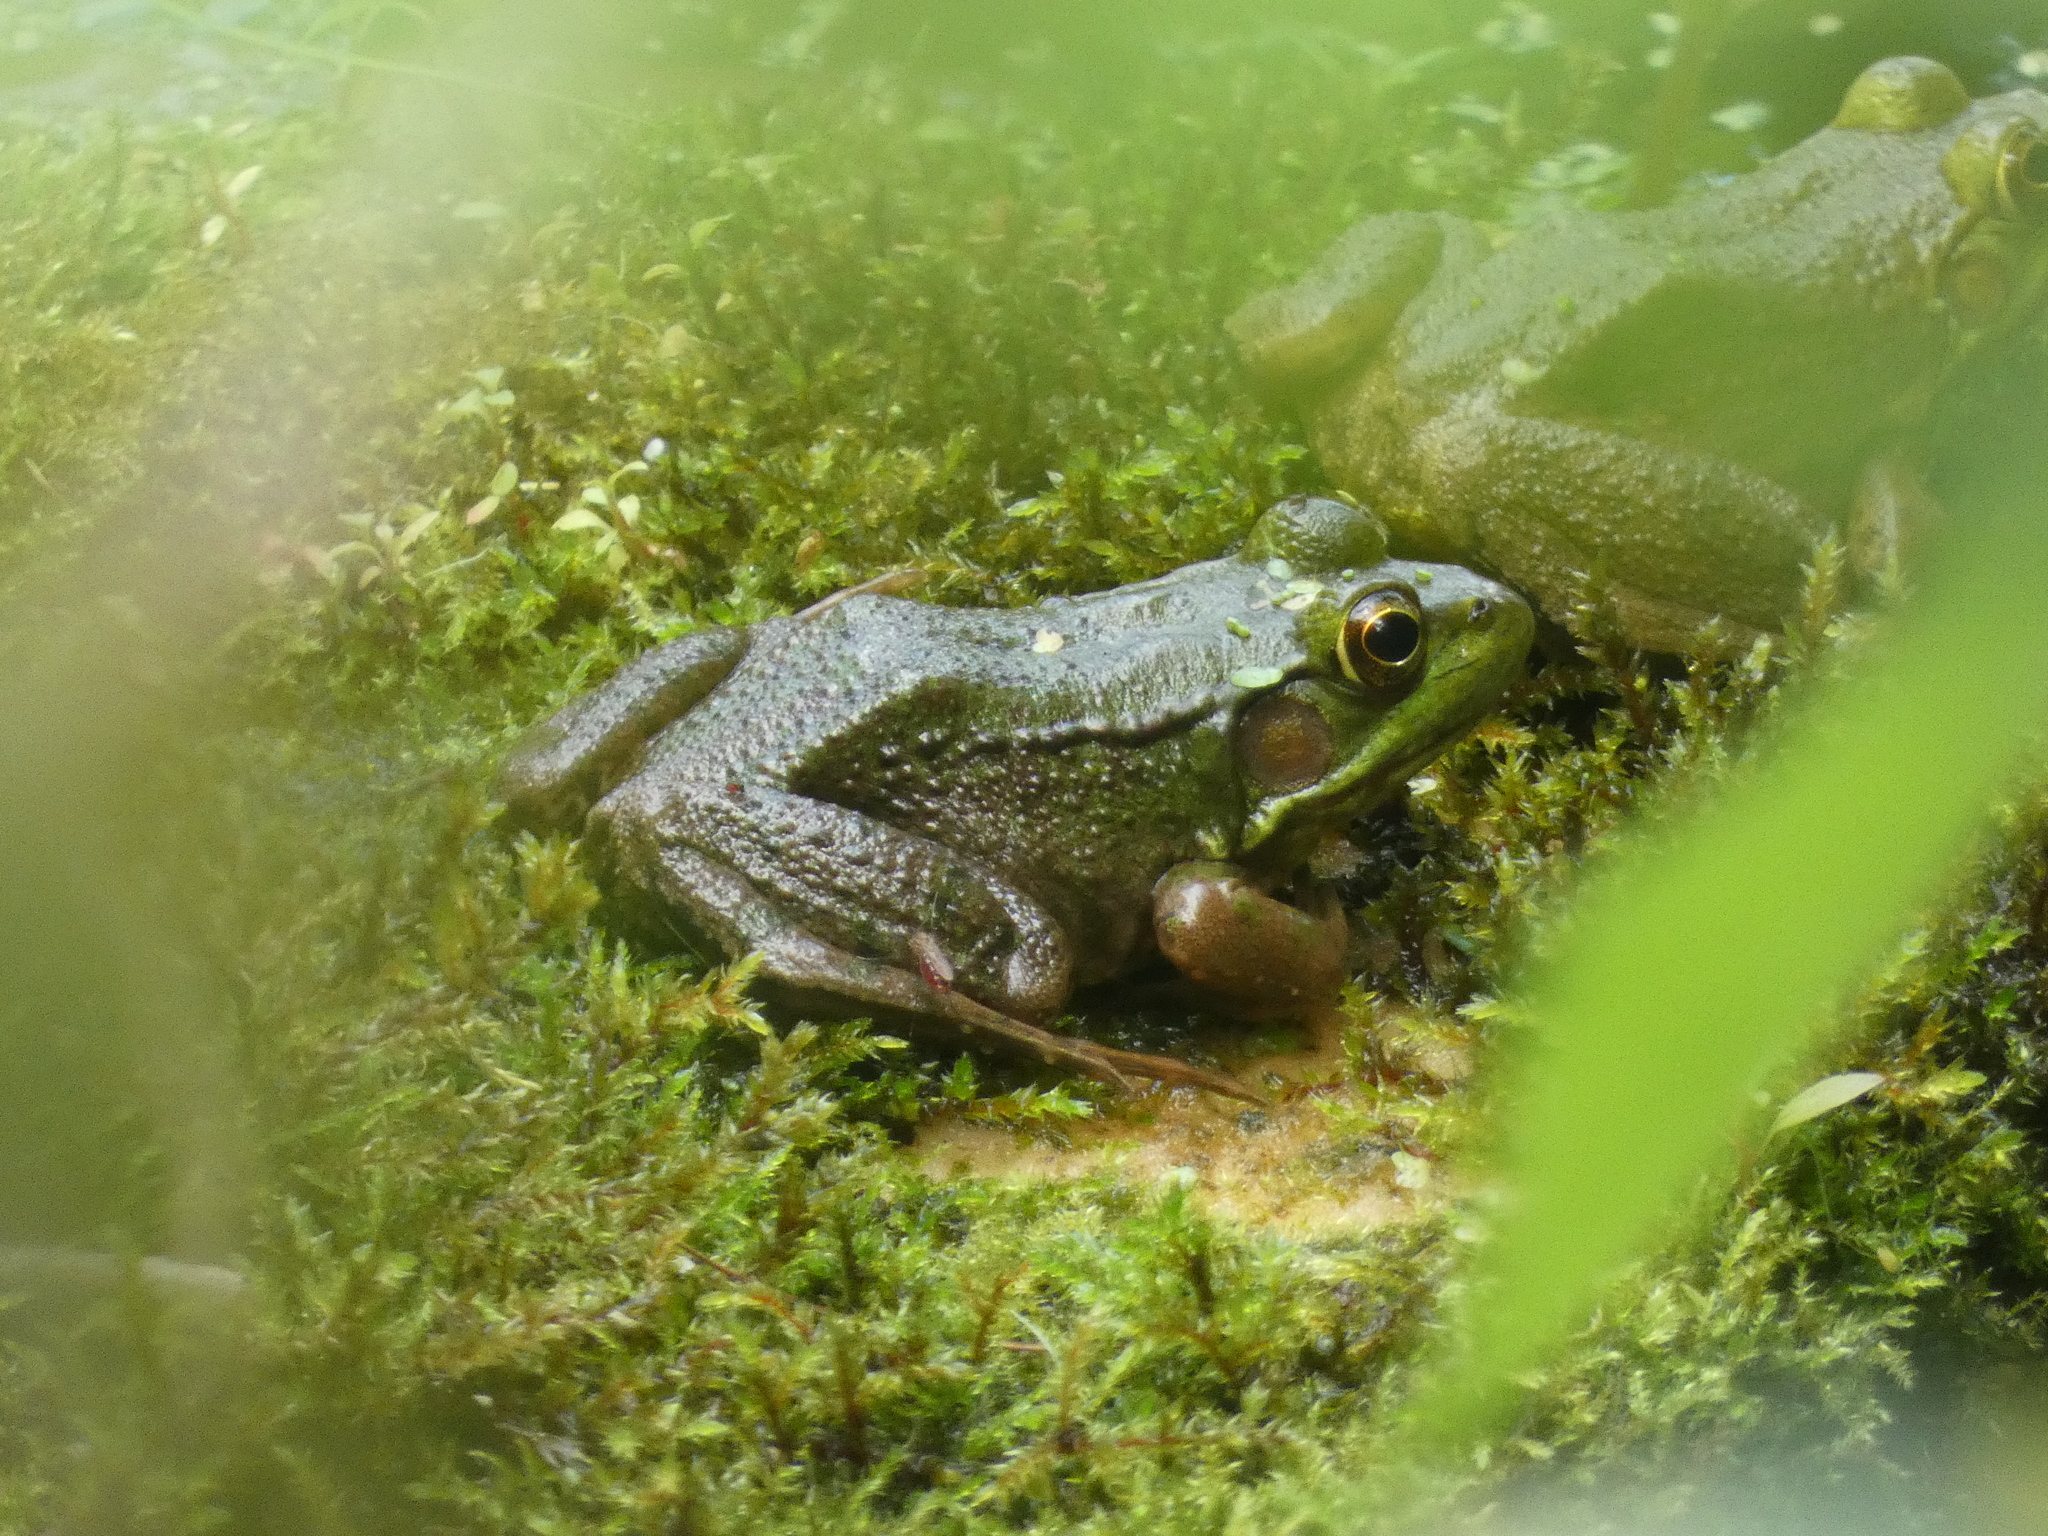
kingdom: Animalia
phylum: Chordata
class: Amphibia
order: Anura
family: Ranidae
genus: Lithobates
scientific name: Lithobates clamitans
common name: Green frog
